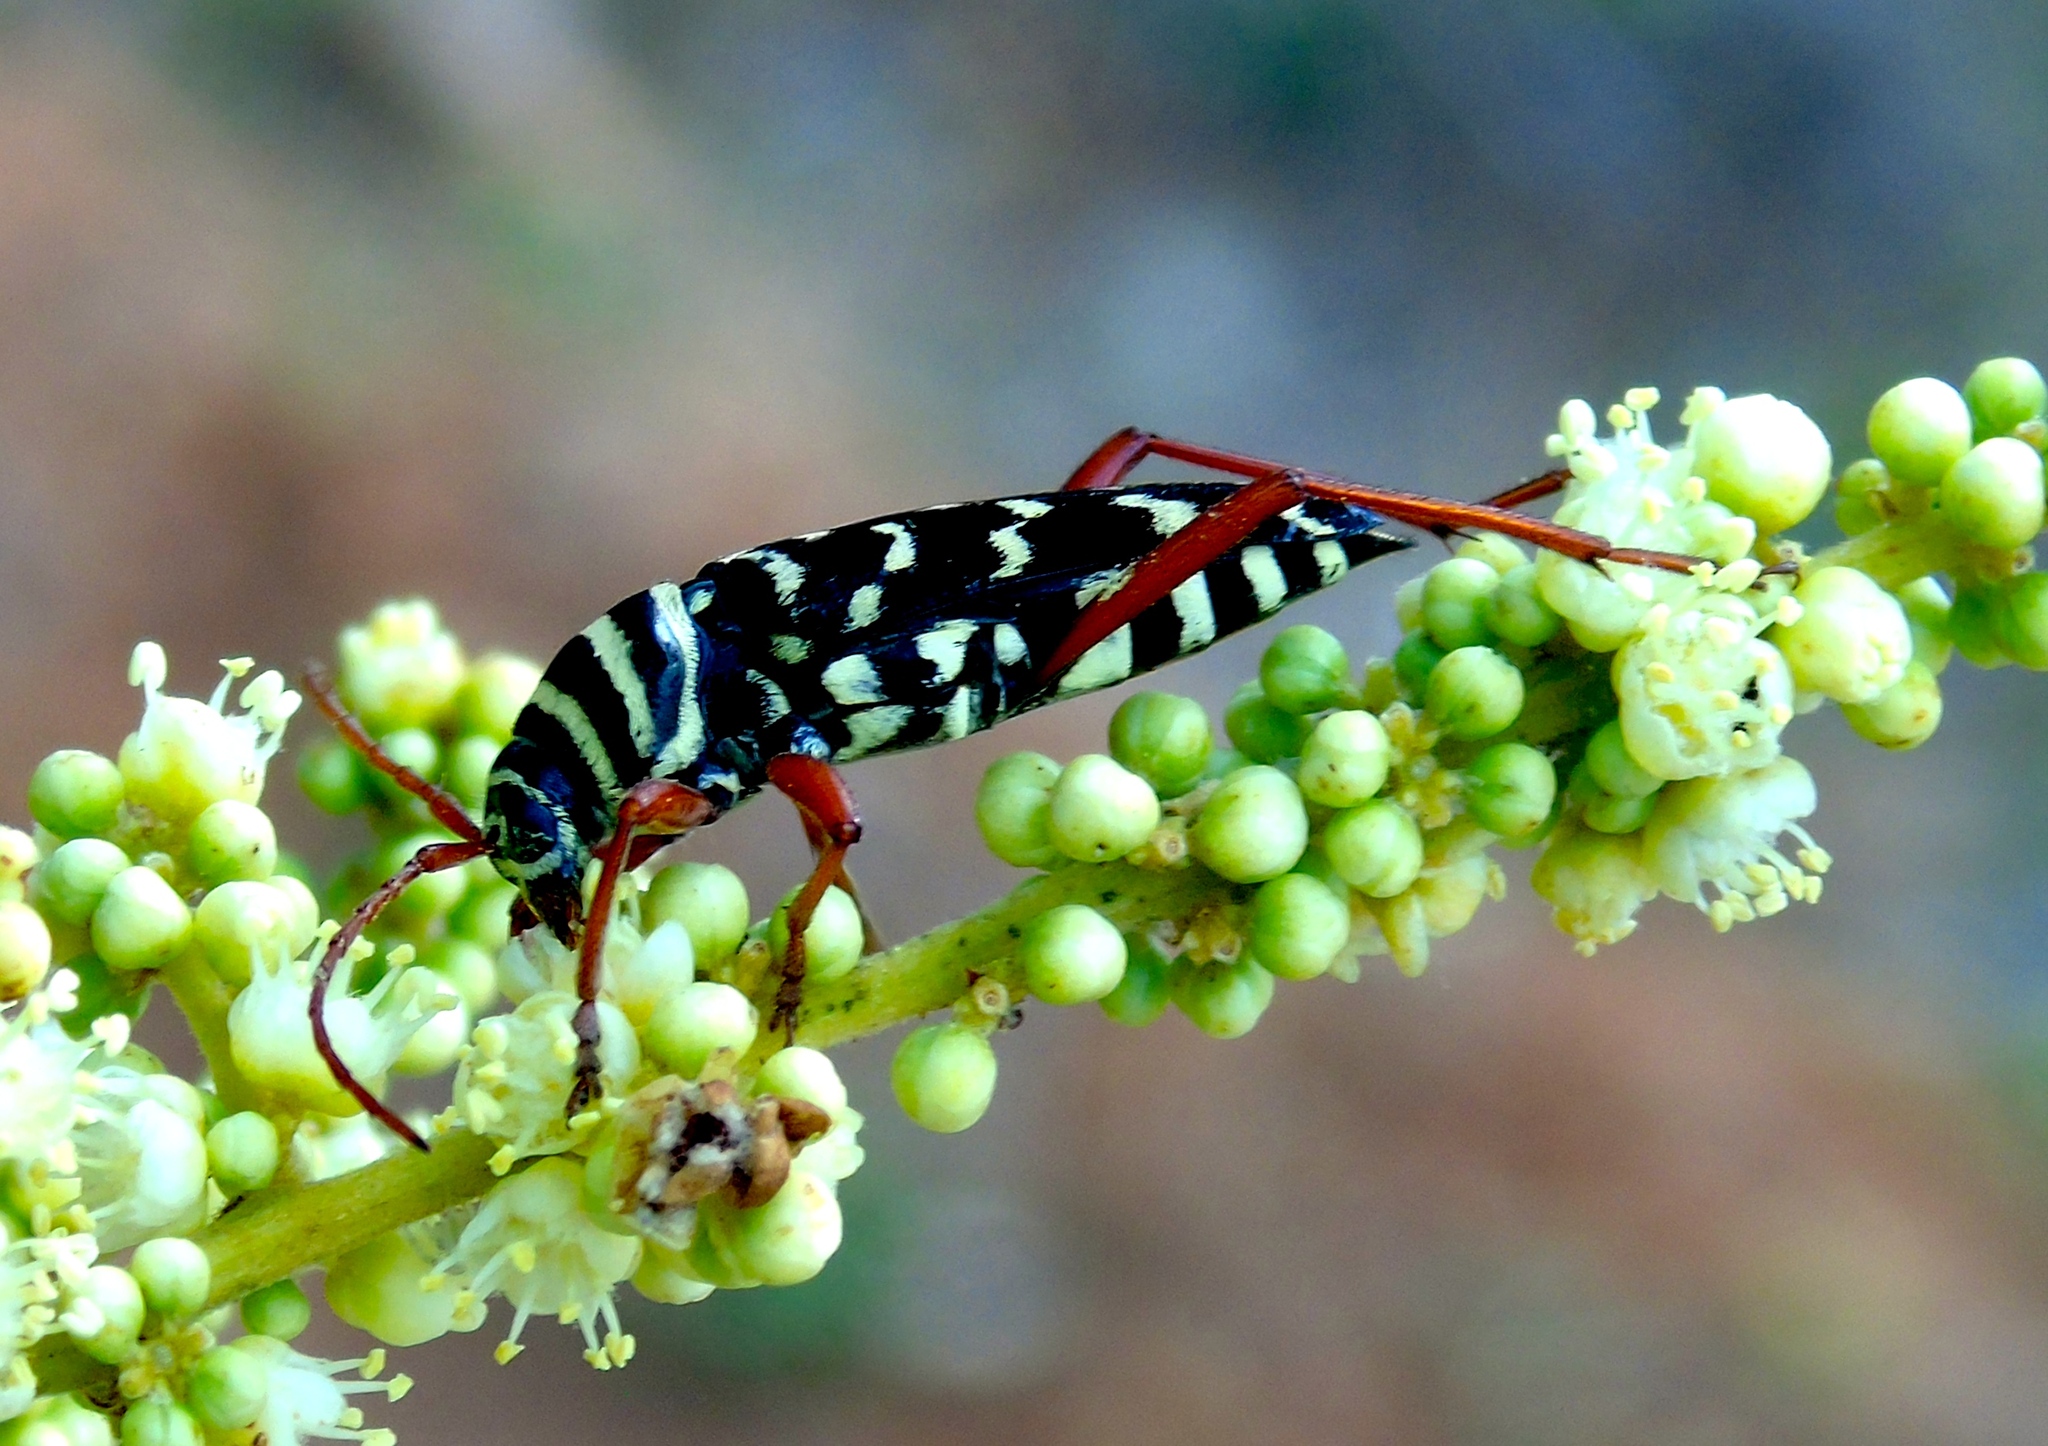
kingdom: Animalia
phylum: Arthropoda
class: Insecta
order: Coleoptera
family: Cerambycidae
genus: Placosternus
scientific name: Placosternus erythropus
